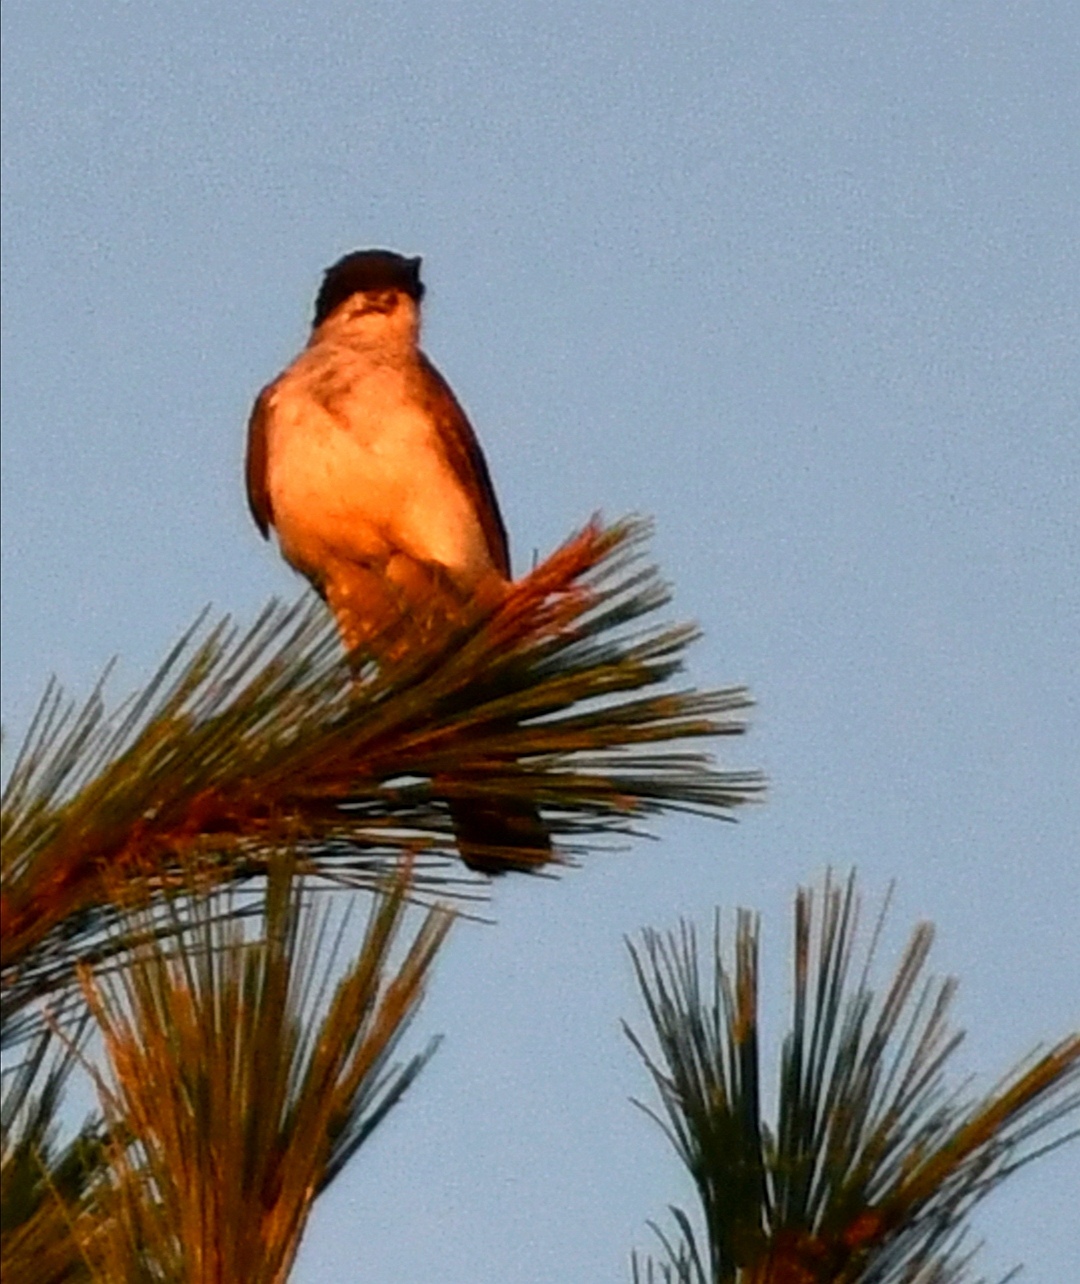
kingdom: Animalia
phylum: Chordata
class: Aves
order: Passeriformes
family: Tyrannidae
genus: Tyrannus
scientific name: Tyrannus tyrannus
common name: Eastern kingbird
